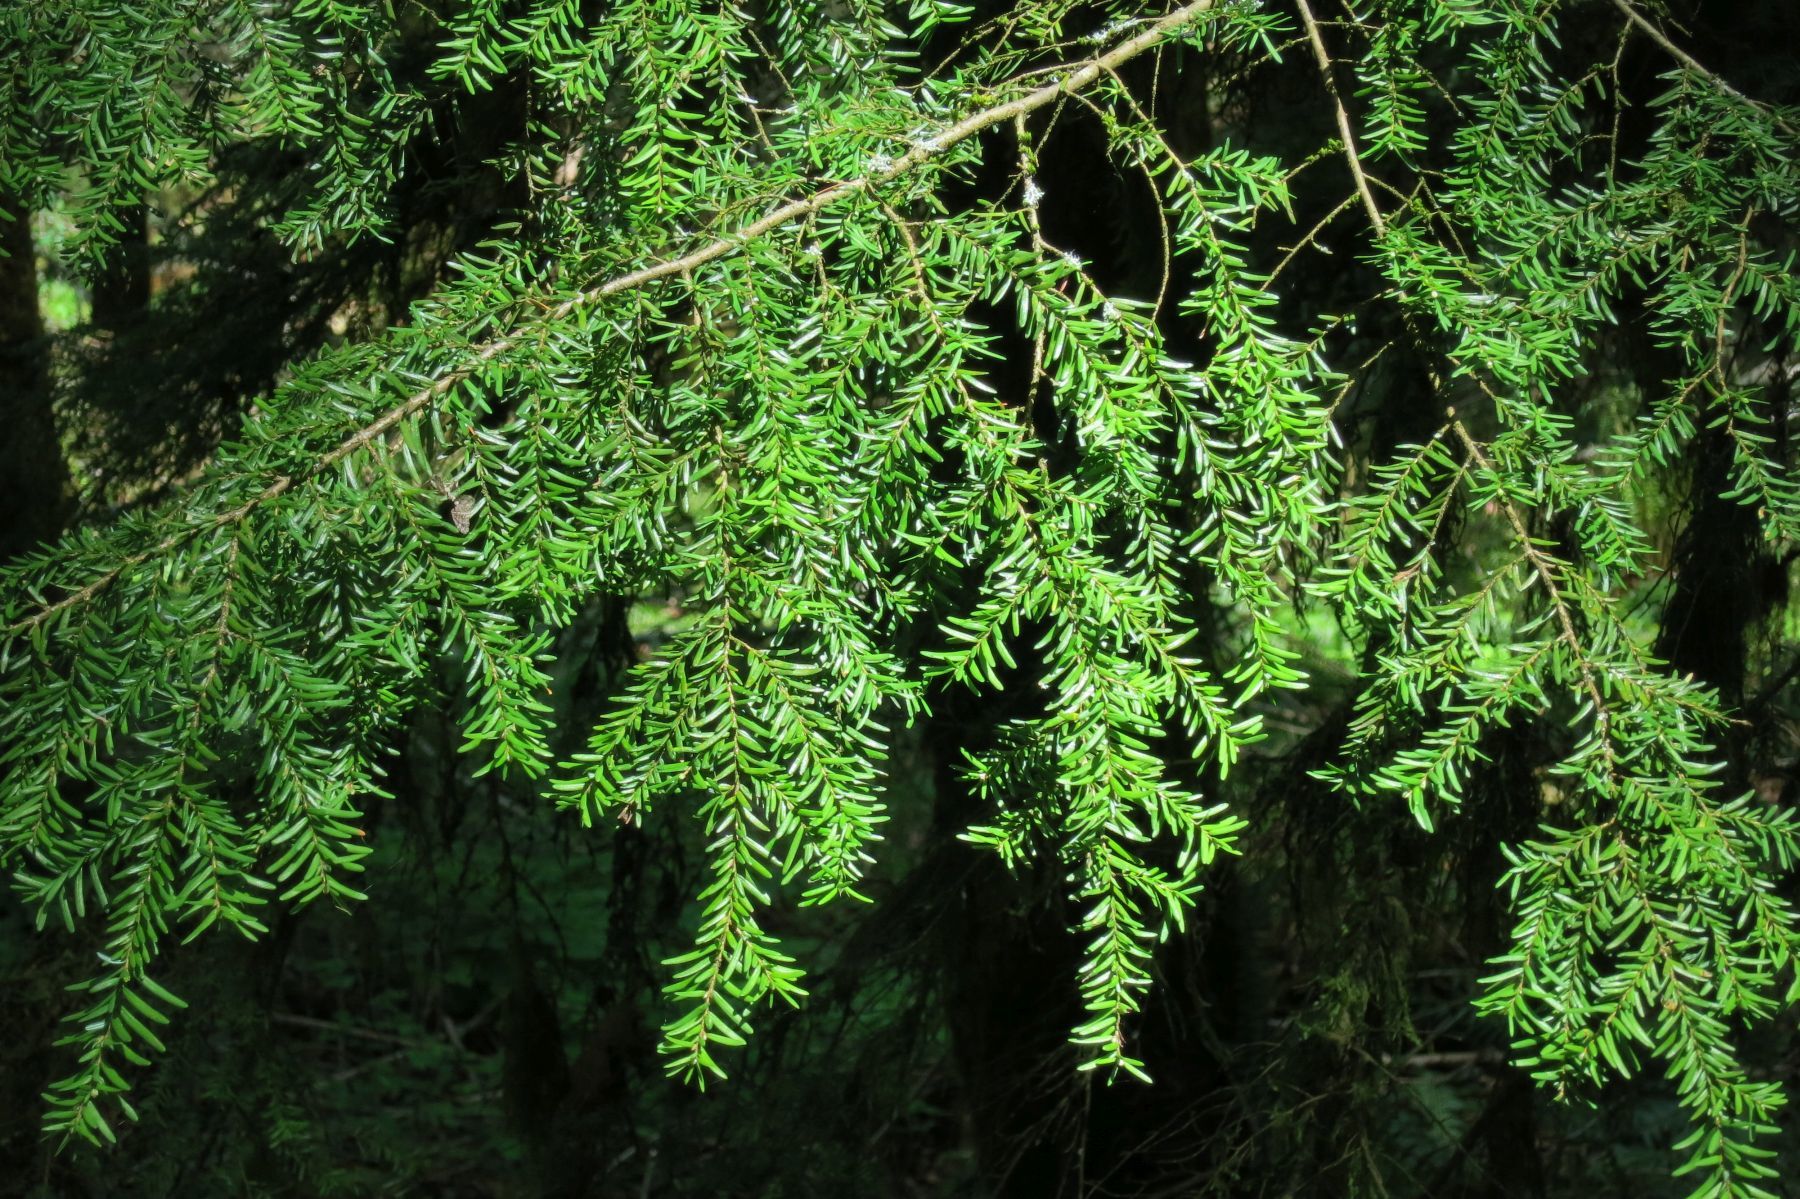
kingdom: Plantae
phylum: Tracheophyta
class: Pinopsida
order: Pinales
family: Pinaceae
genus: Tsuga
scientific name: Tsuga heterophylla
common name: Western hemlock
